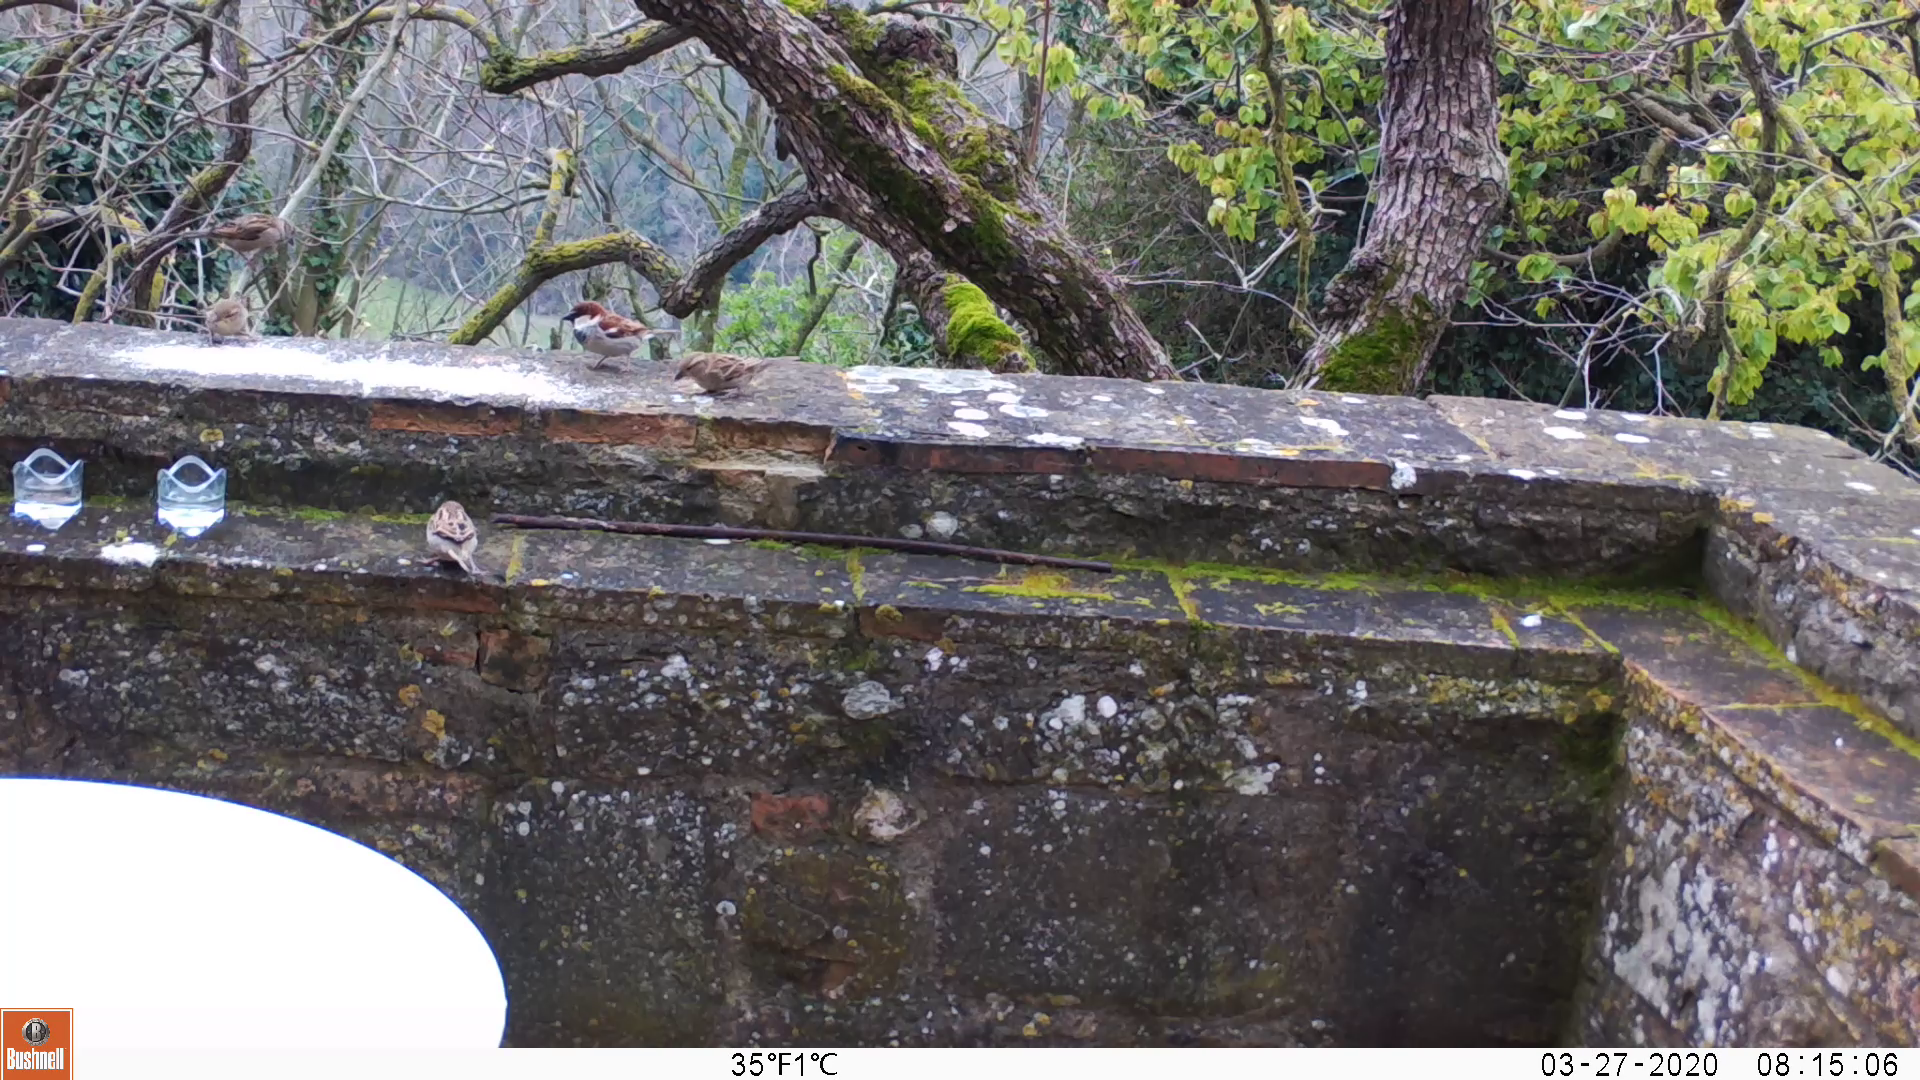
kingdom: Animalia
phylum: Chordata
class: Aves
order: Passeriformes
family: Passeridae
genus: Passer
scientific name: Passer italiae
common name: Italian sparrow
